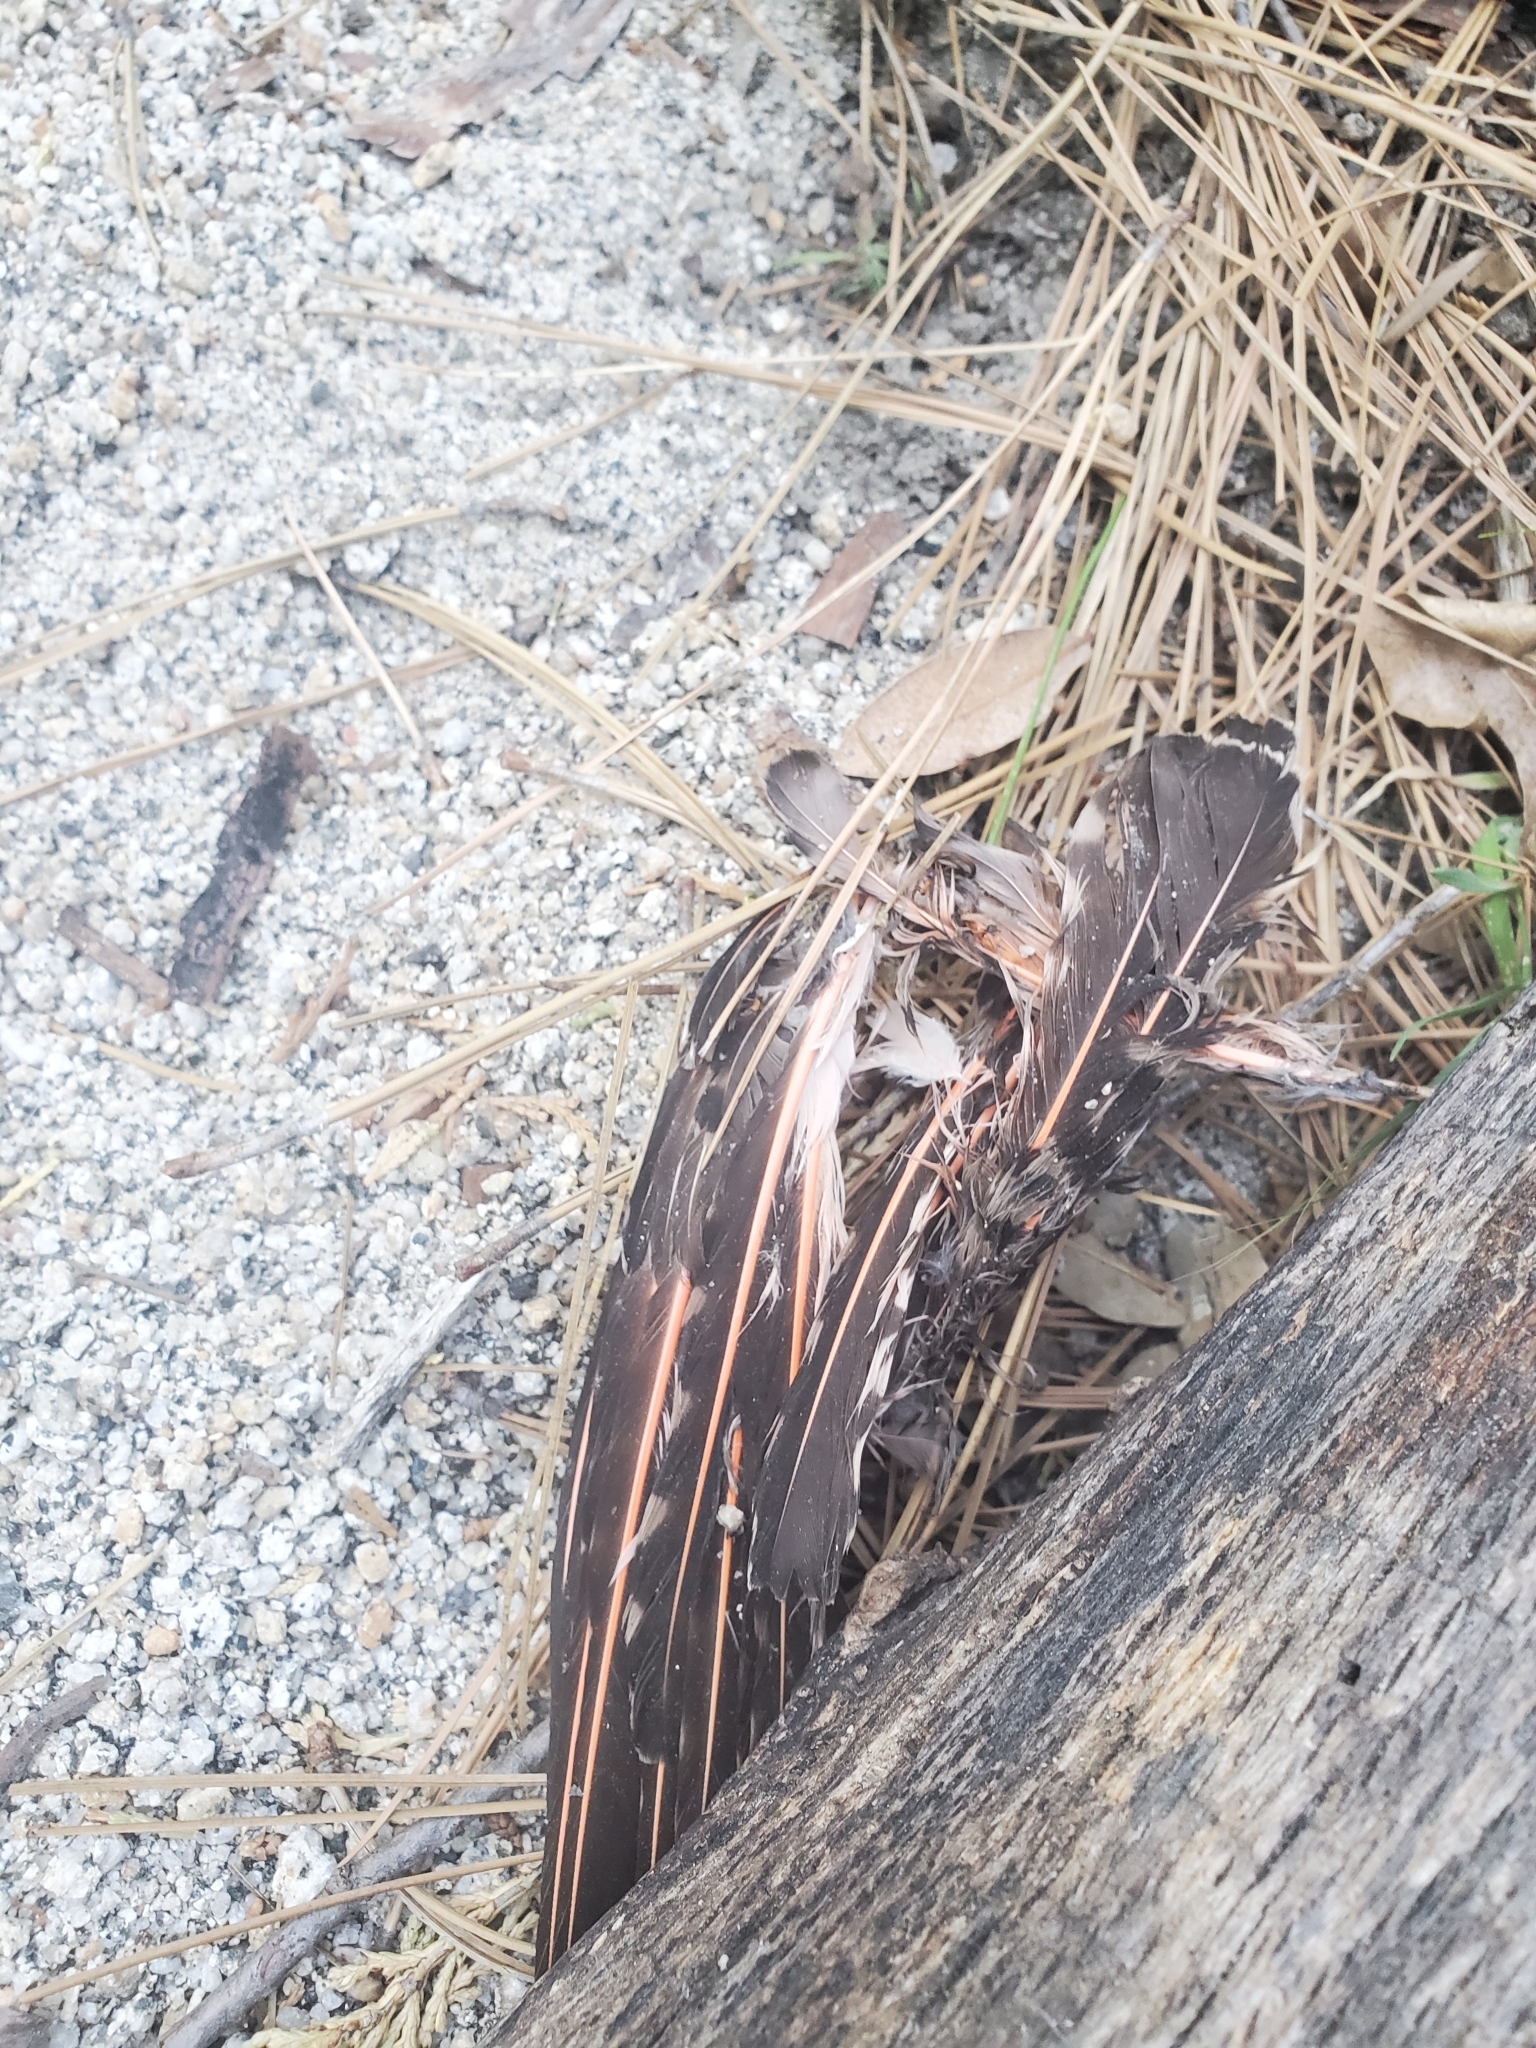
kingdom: Animalia
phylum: Chordata
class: Aves
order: Piciformes
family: Picidae
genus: Colaptes
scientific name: Colaptes auratus
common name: Northern flicker
